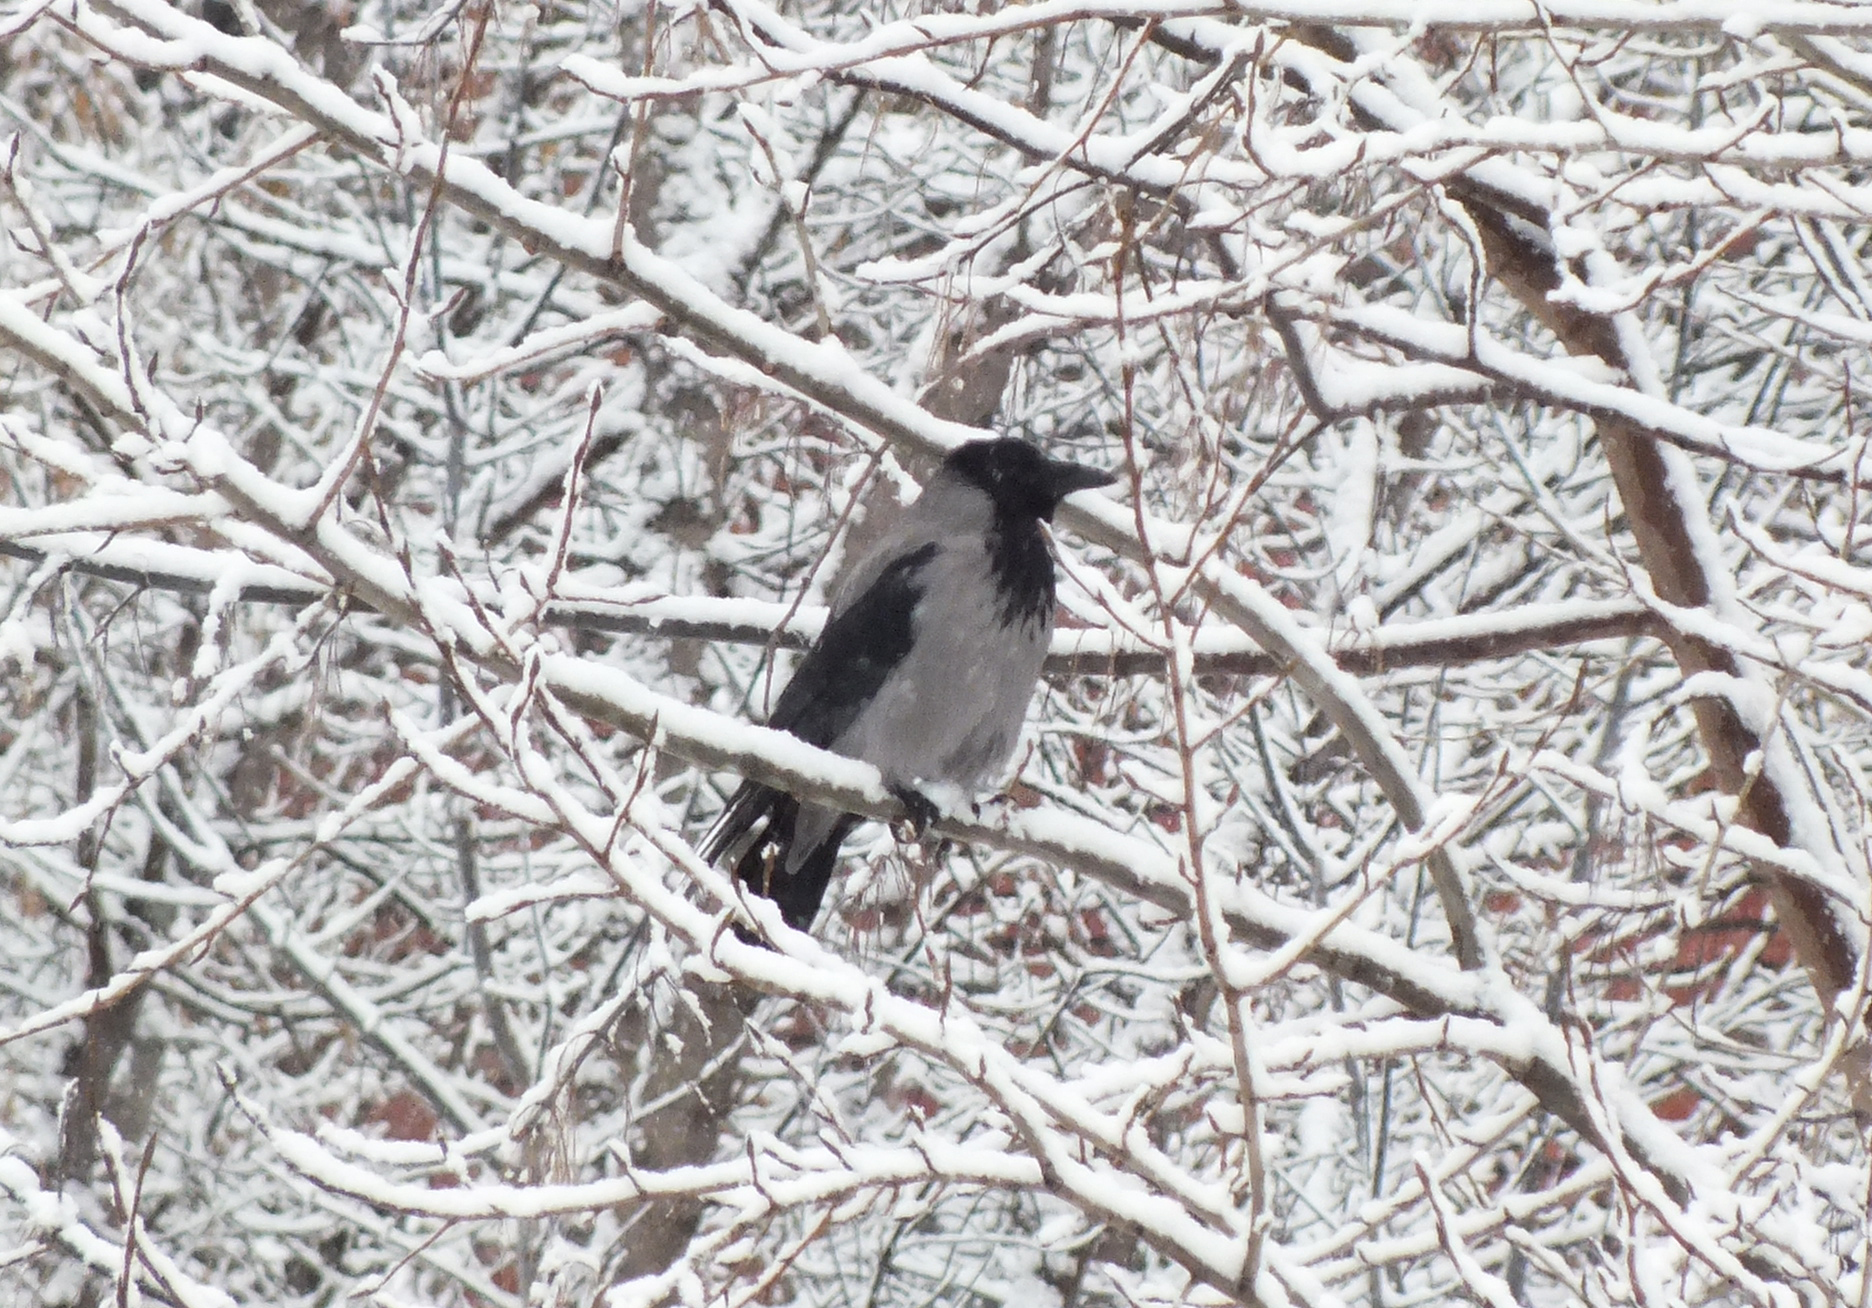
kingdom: Animalia
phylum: Chordata
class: Aves
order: Passeriformes
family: Corvidae
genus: Corvus
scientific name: Corvus cornix
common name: Hooded crow
